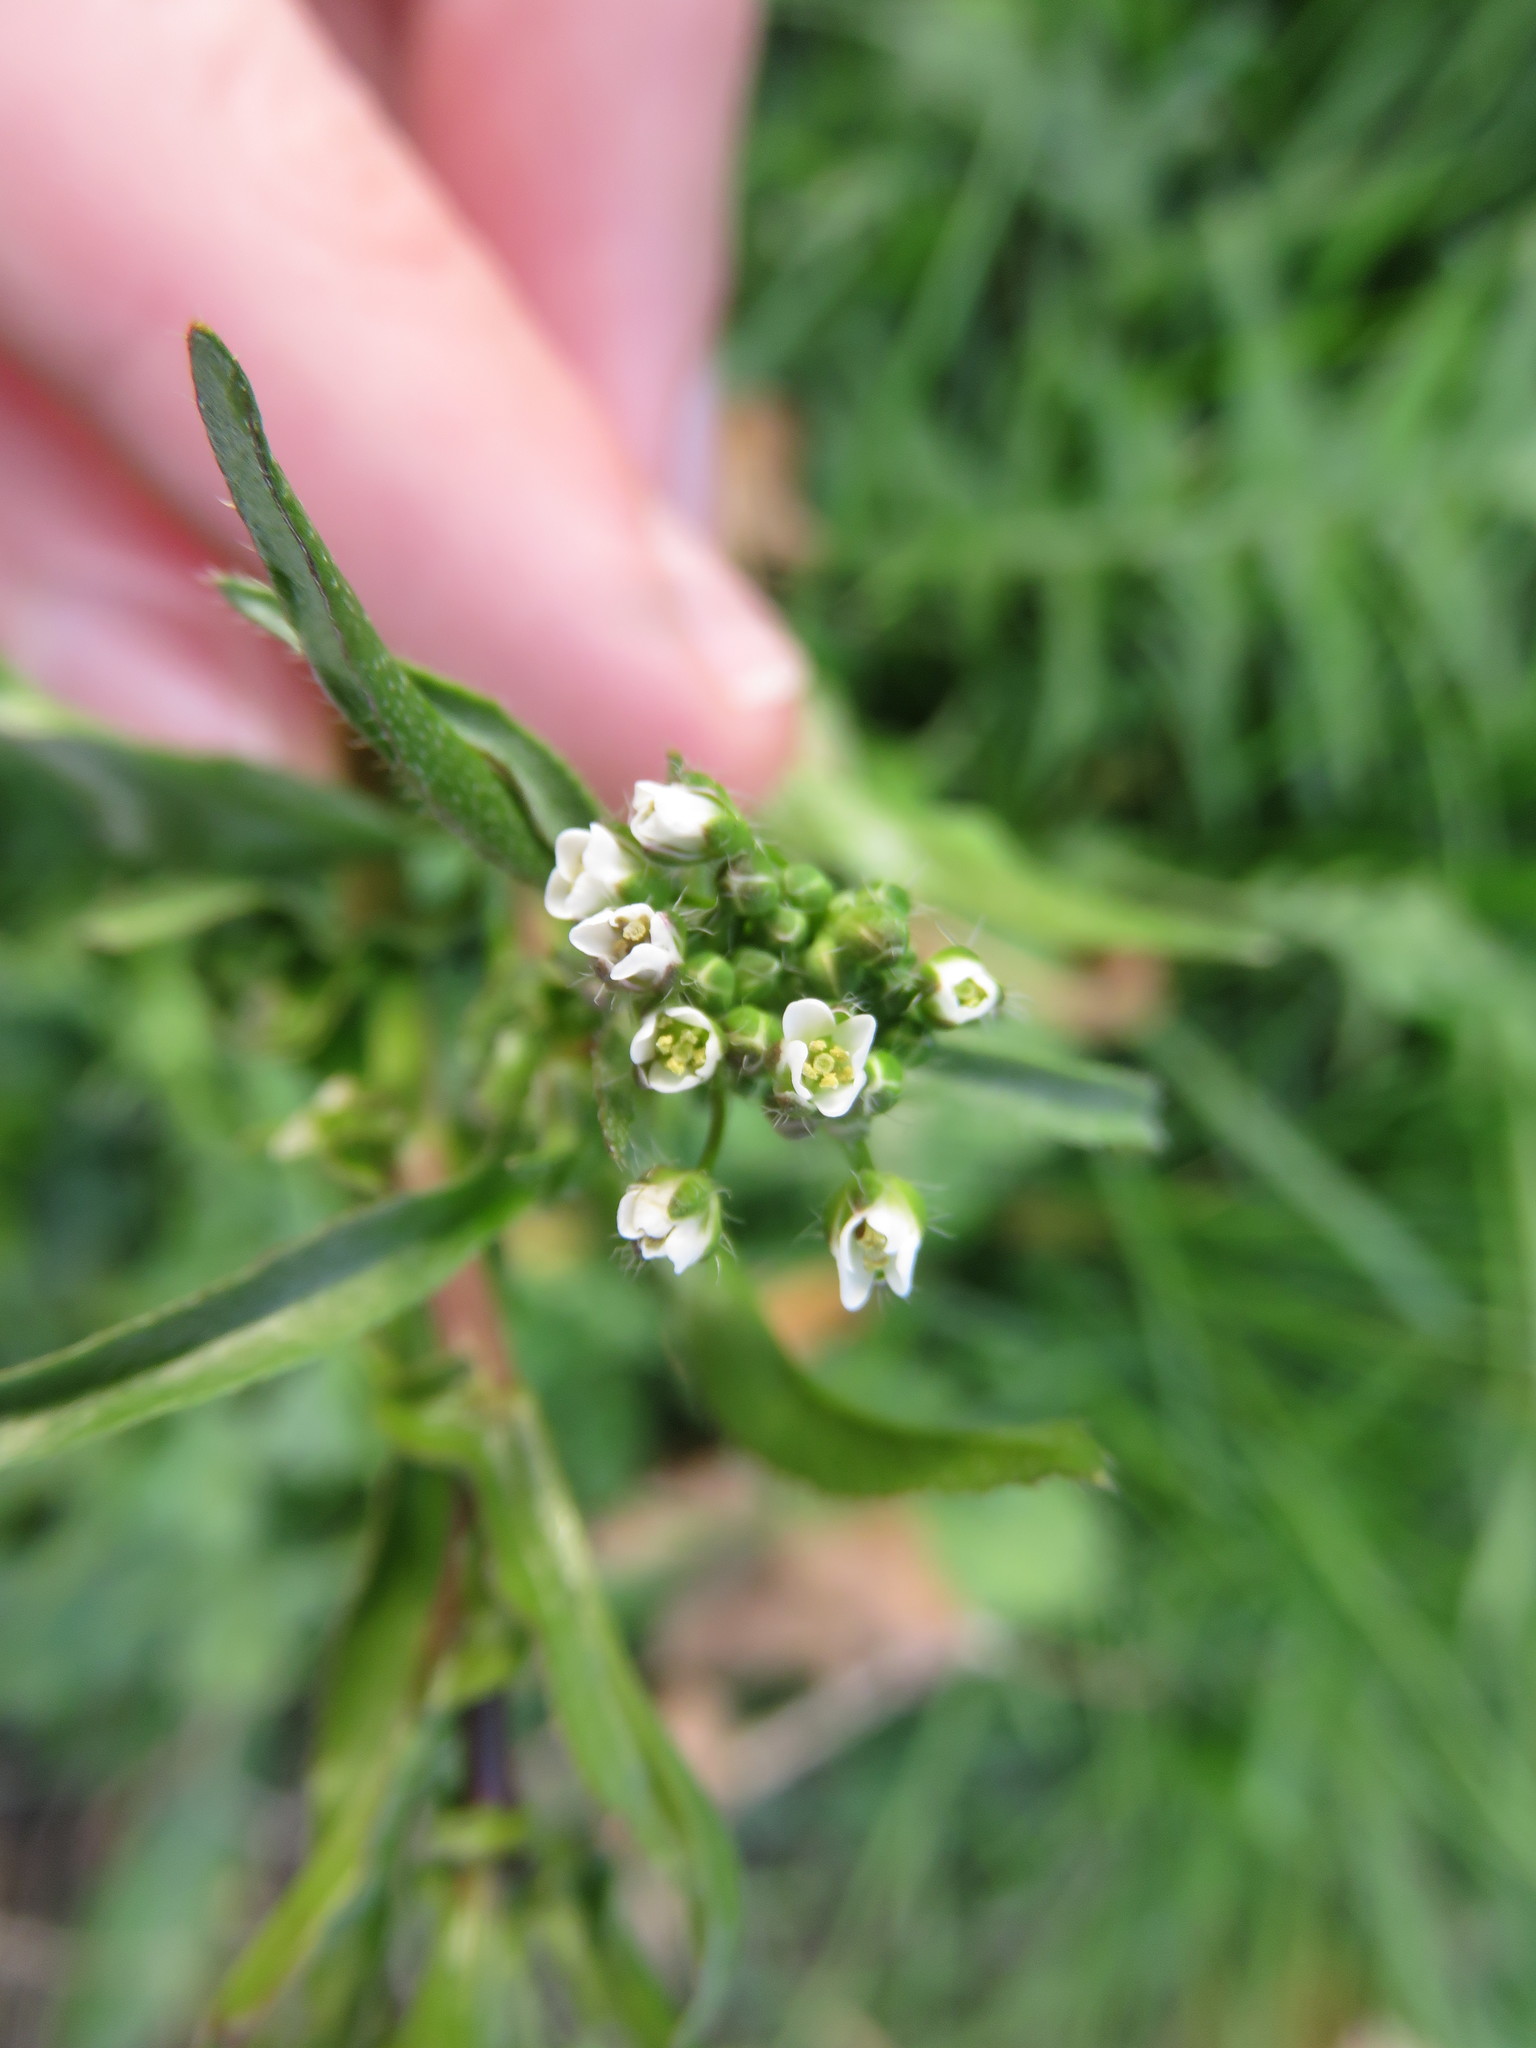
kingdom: Plantae
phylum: Tracheophyta
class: Magnoliopsida
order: Brassicales
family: Brassicaceae
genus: Capsella
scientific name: Capsella bursa-pastoris
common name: Shepherd's purse
